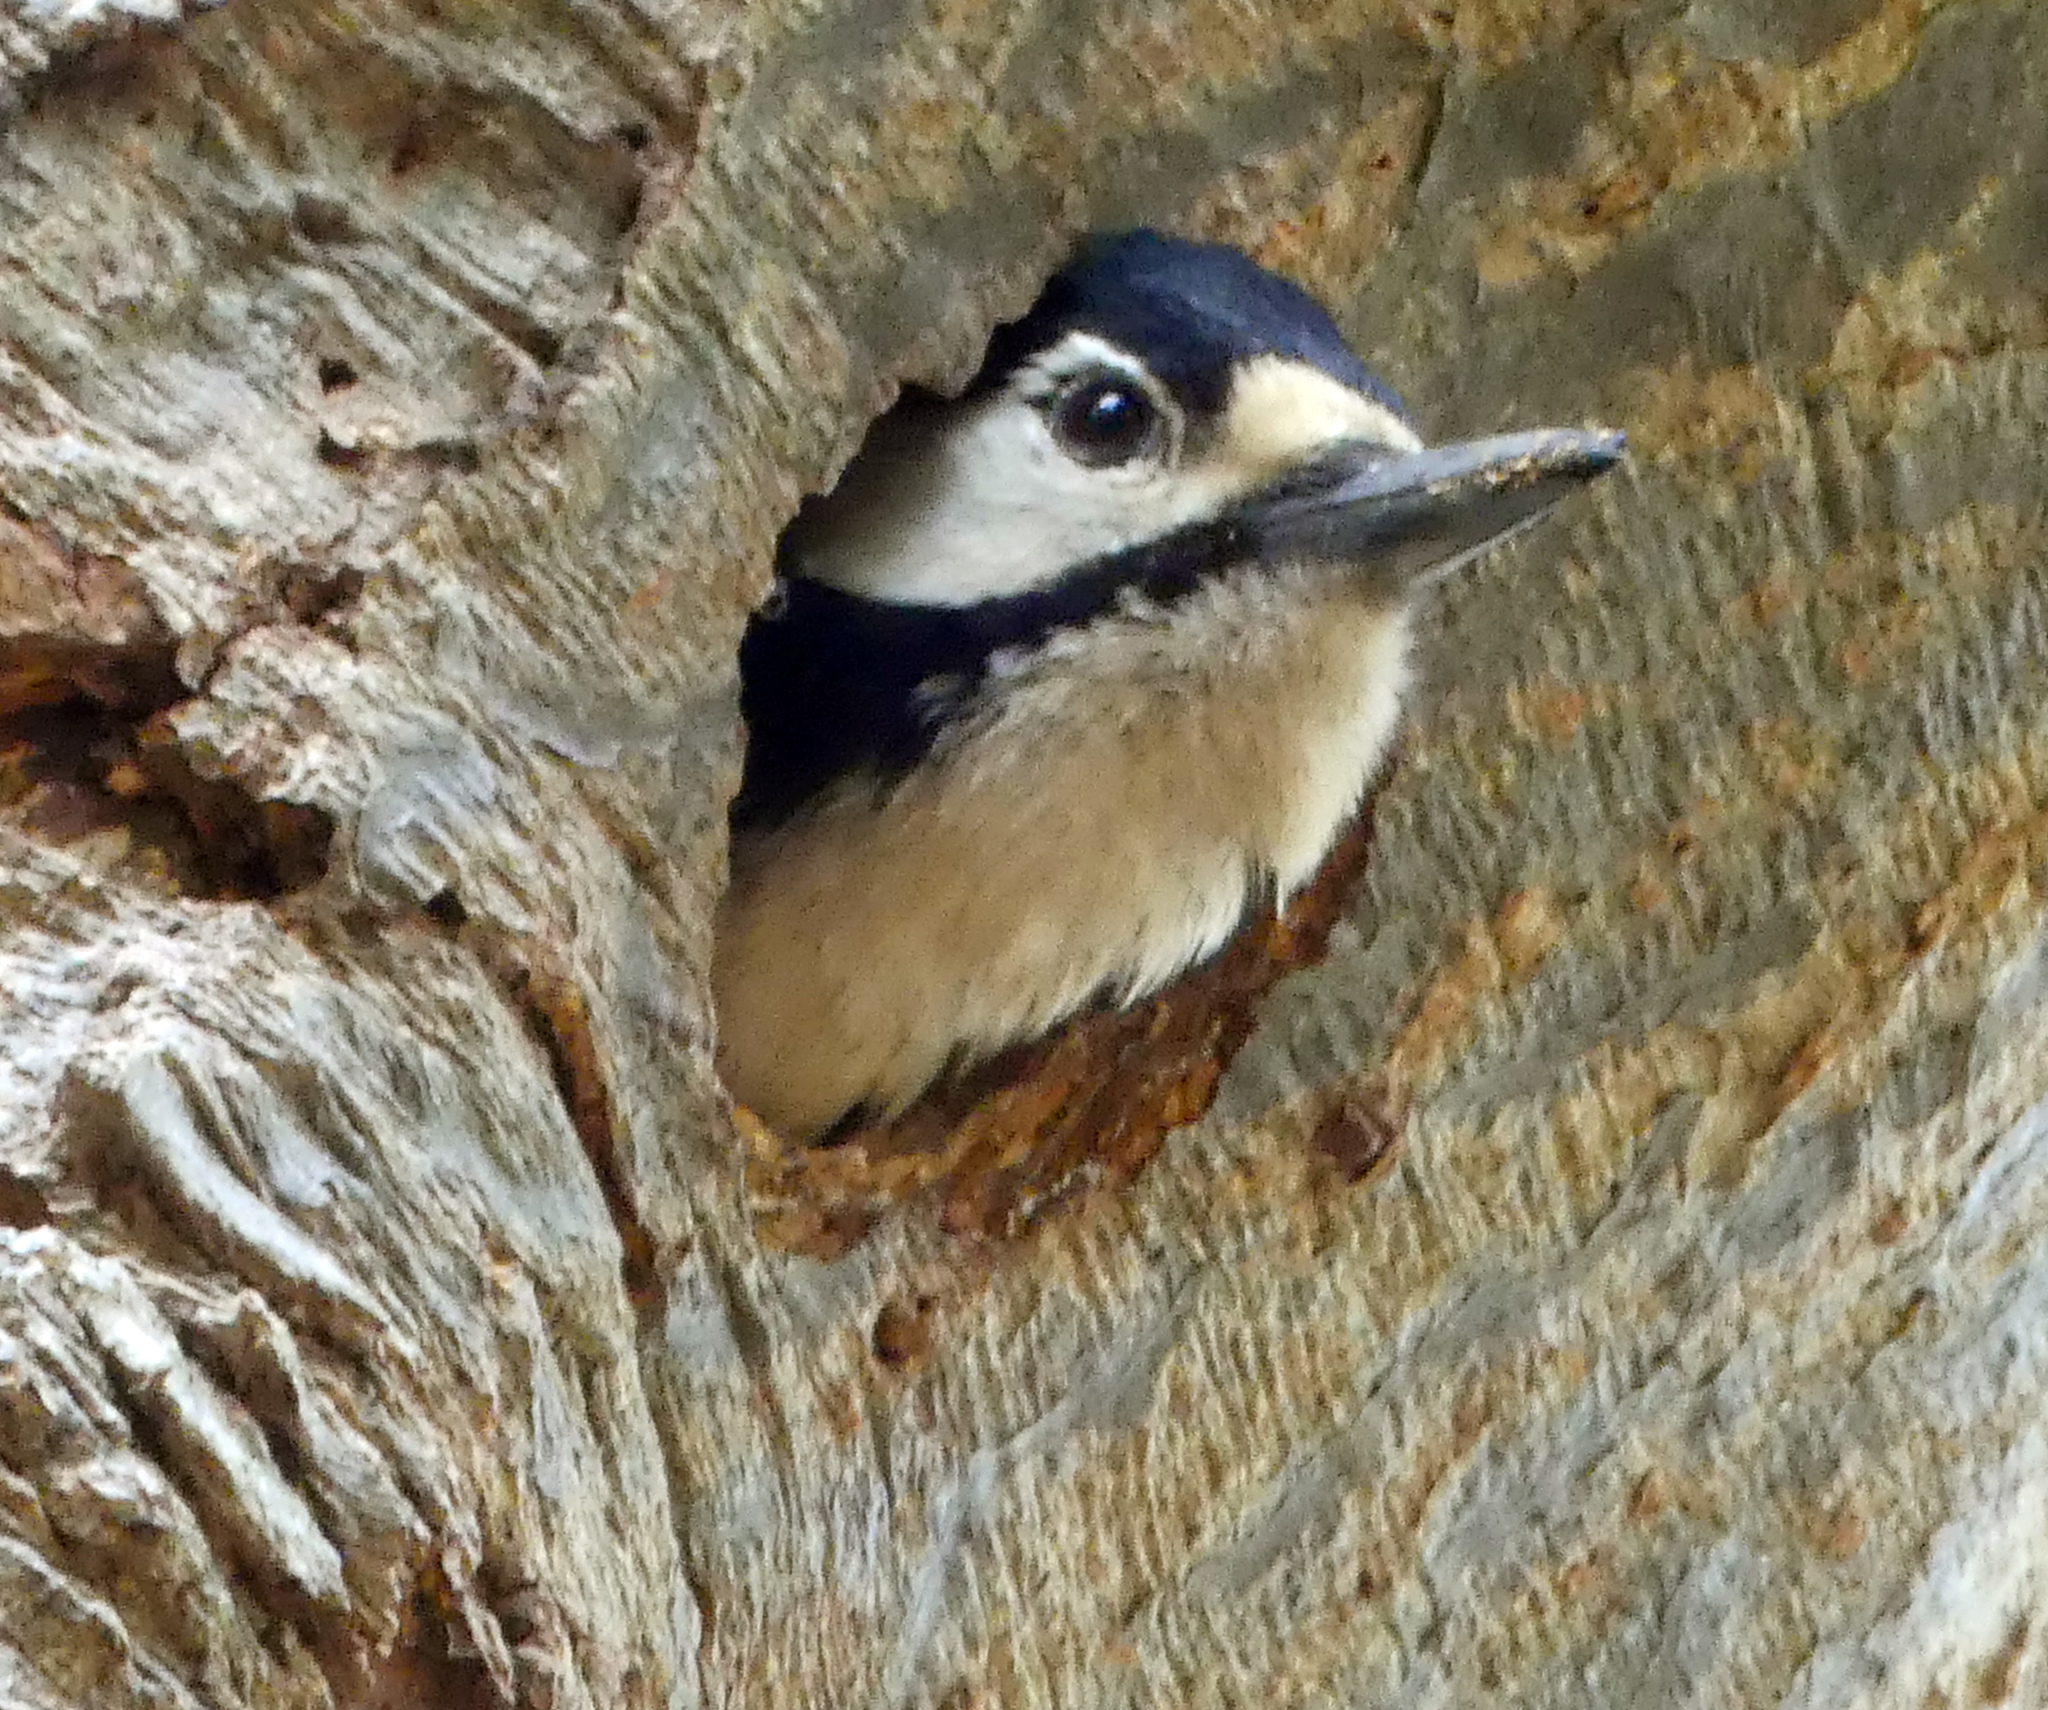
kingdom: Animalia
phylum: Chordata
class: Aves
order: Piciformes
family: Picidae
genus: Dendrocopos
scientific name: Dendrocopos major
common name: Great spotted woodpecker
